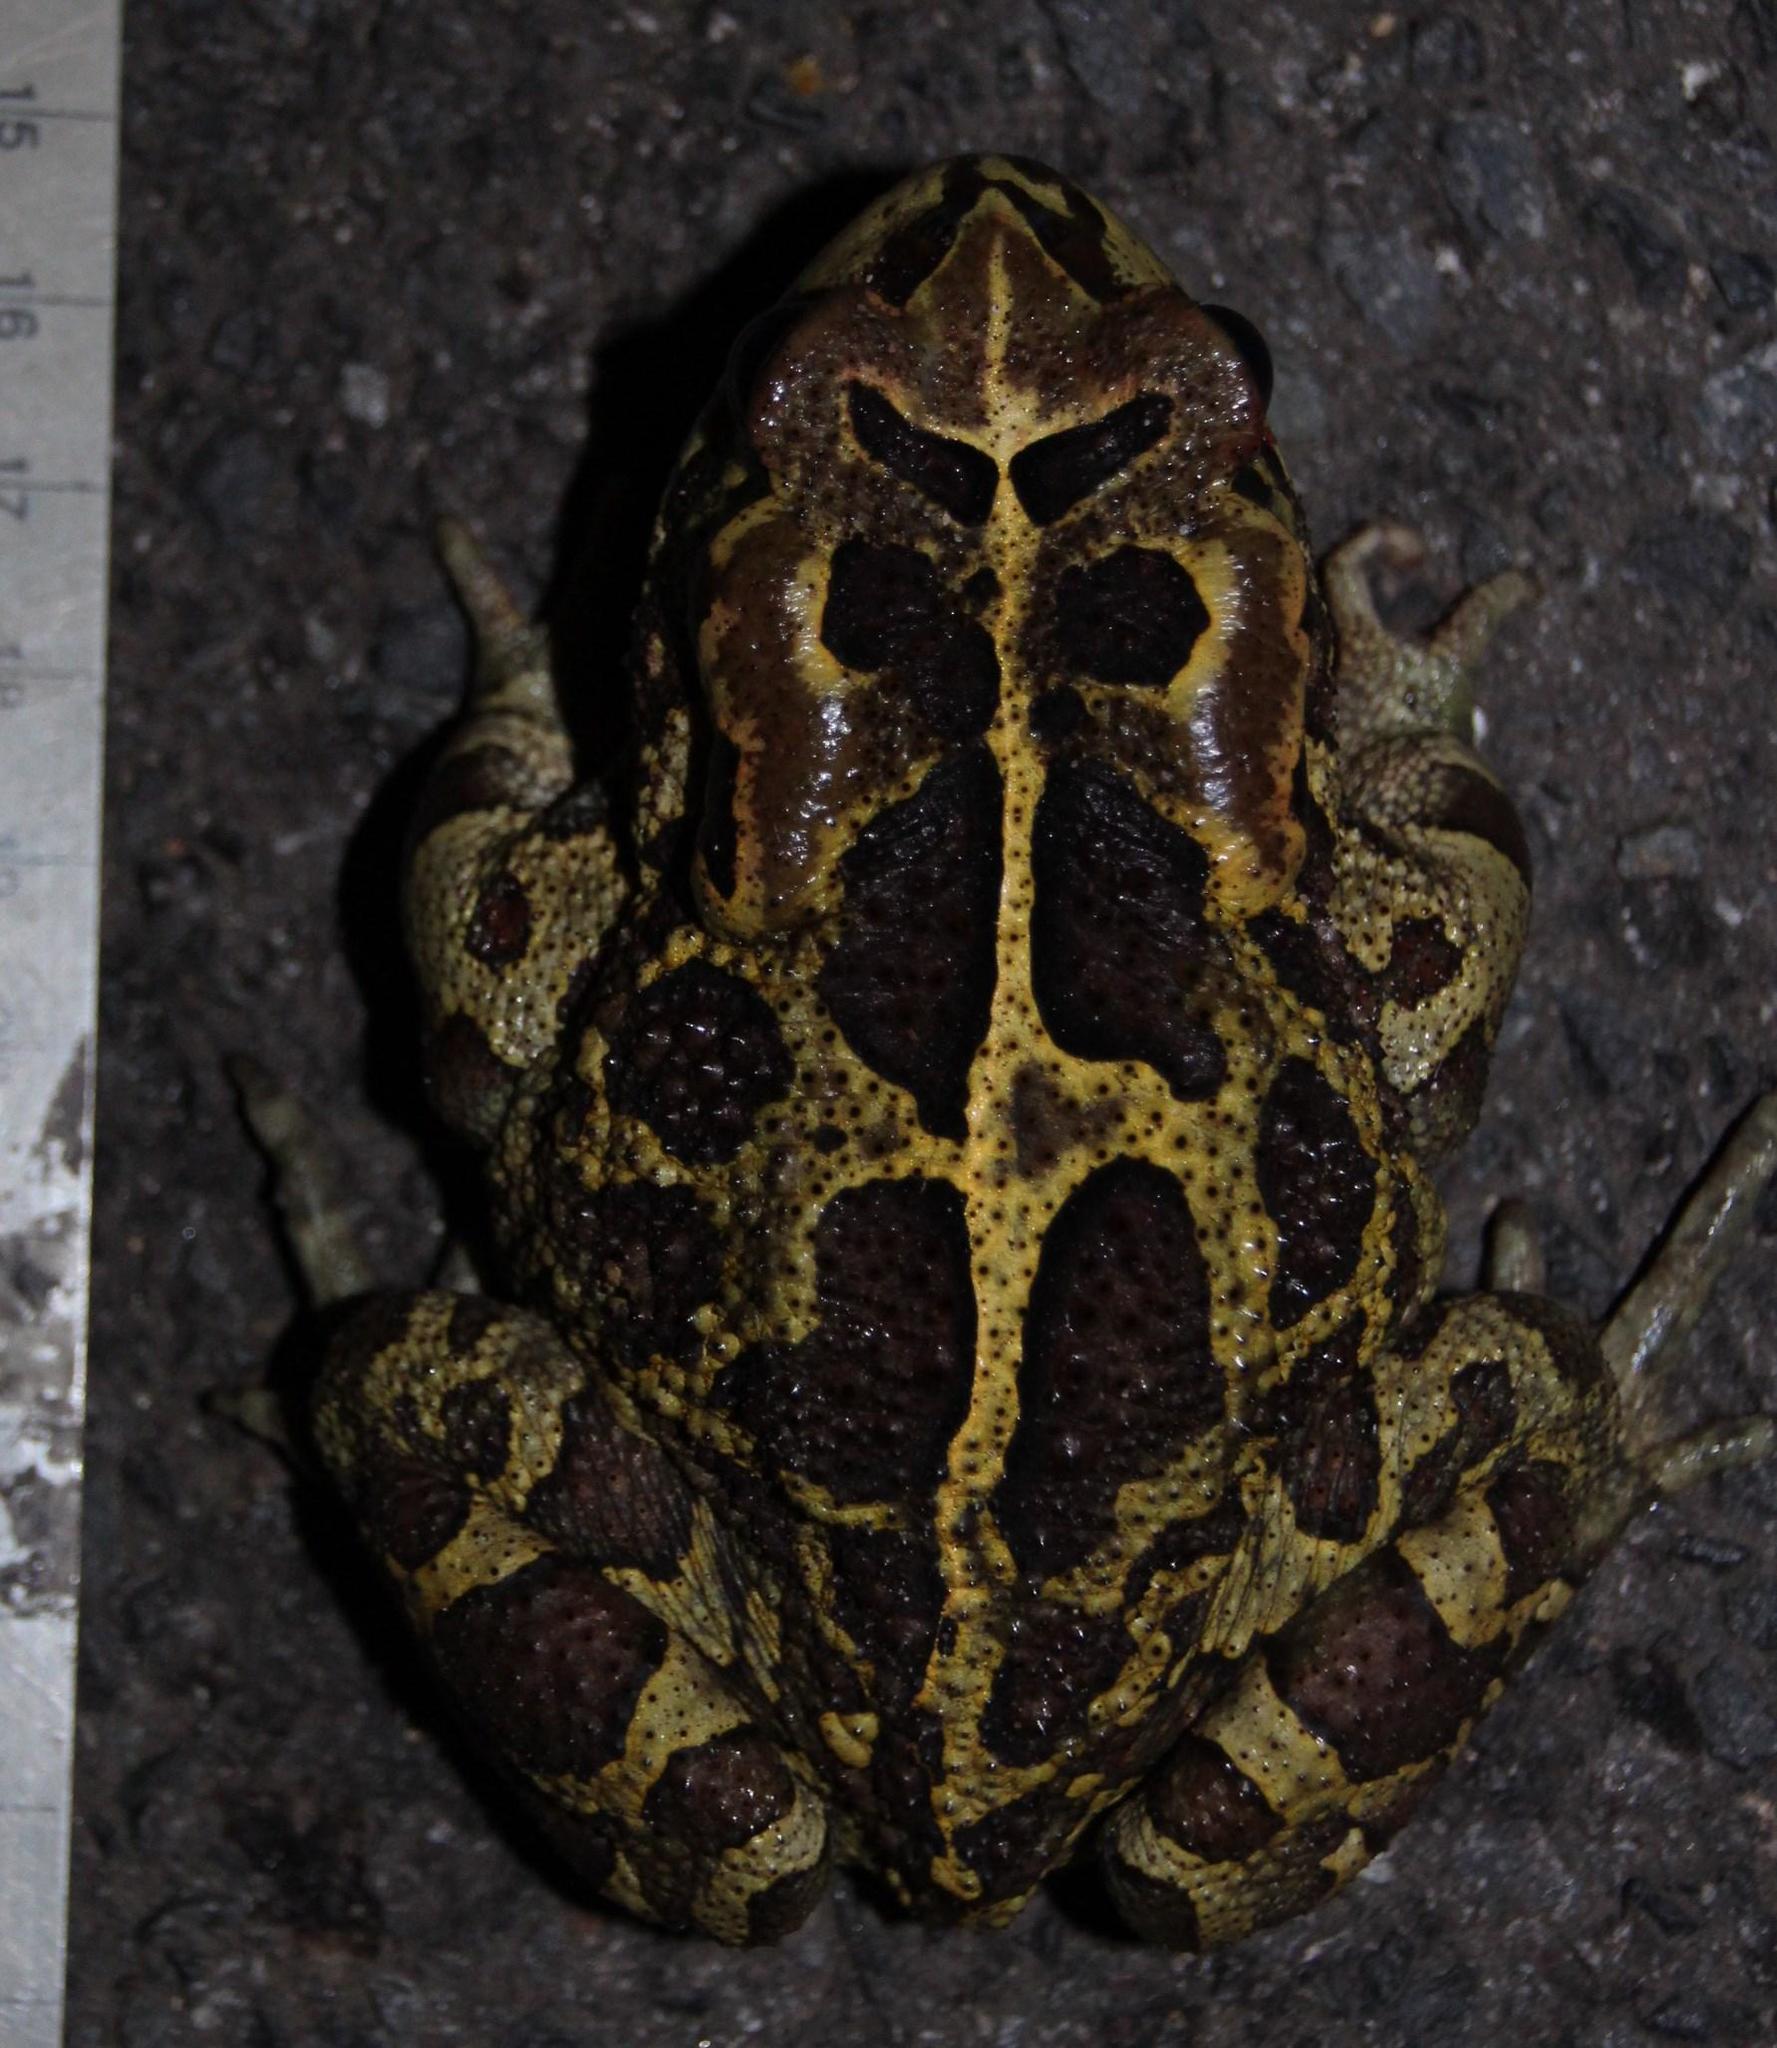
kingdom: Animalia
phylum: Chordata
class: Amphibia
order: Anura
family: Bufonidae
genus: Sclerophrys
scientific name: Sclerophrys pantherina
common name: Panther toad
